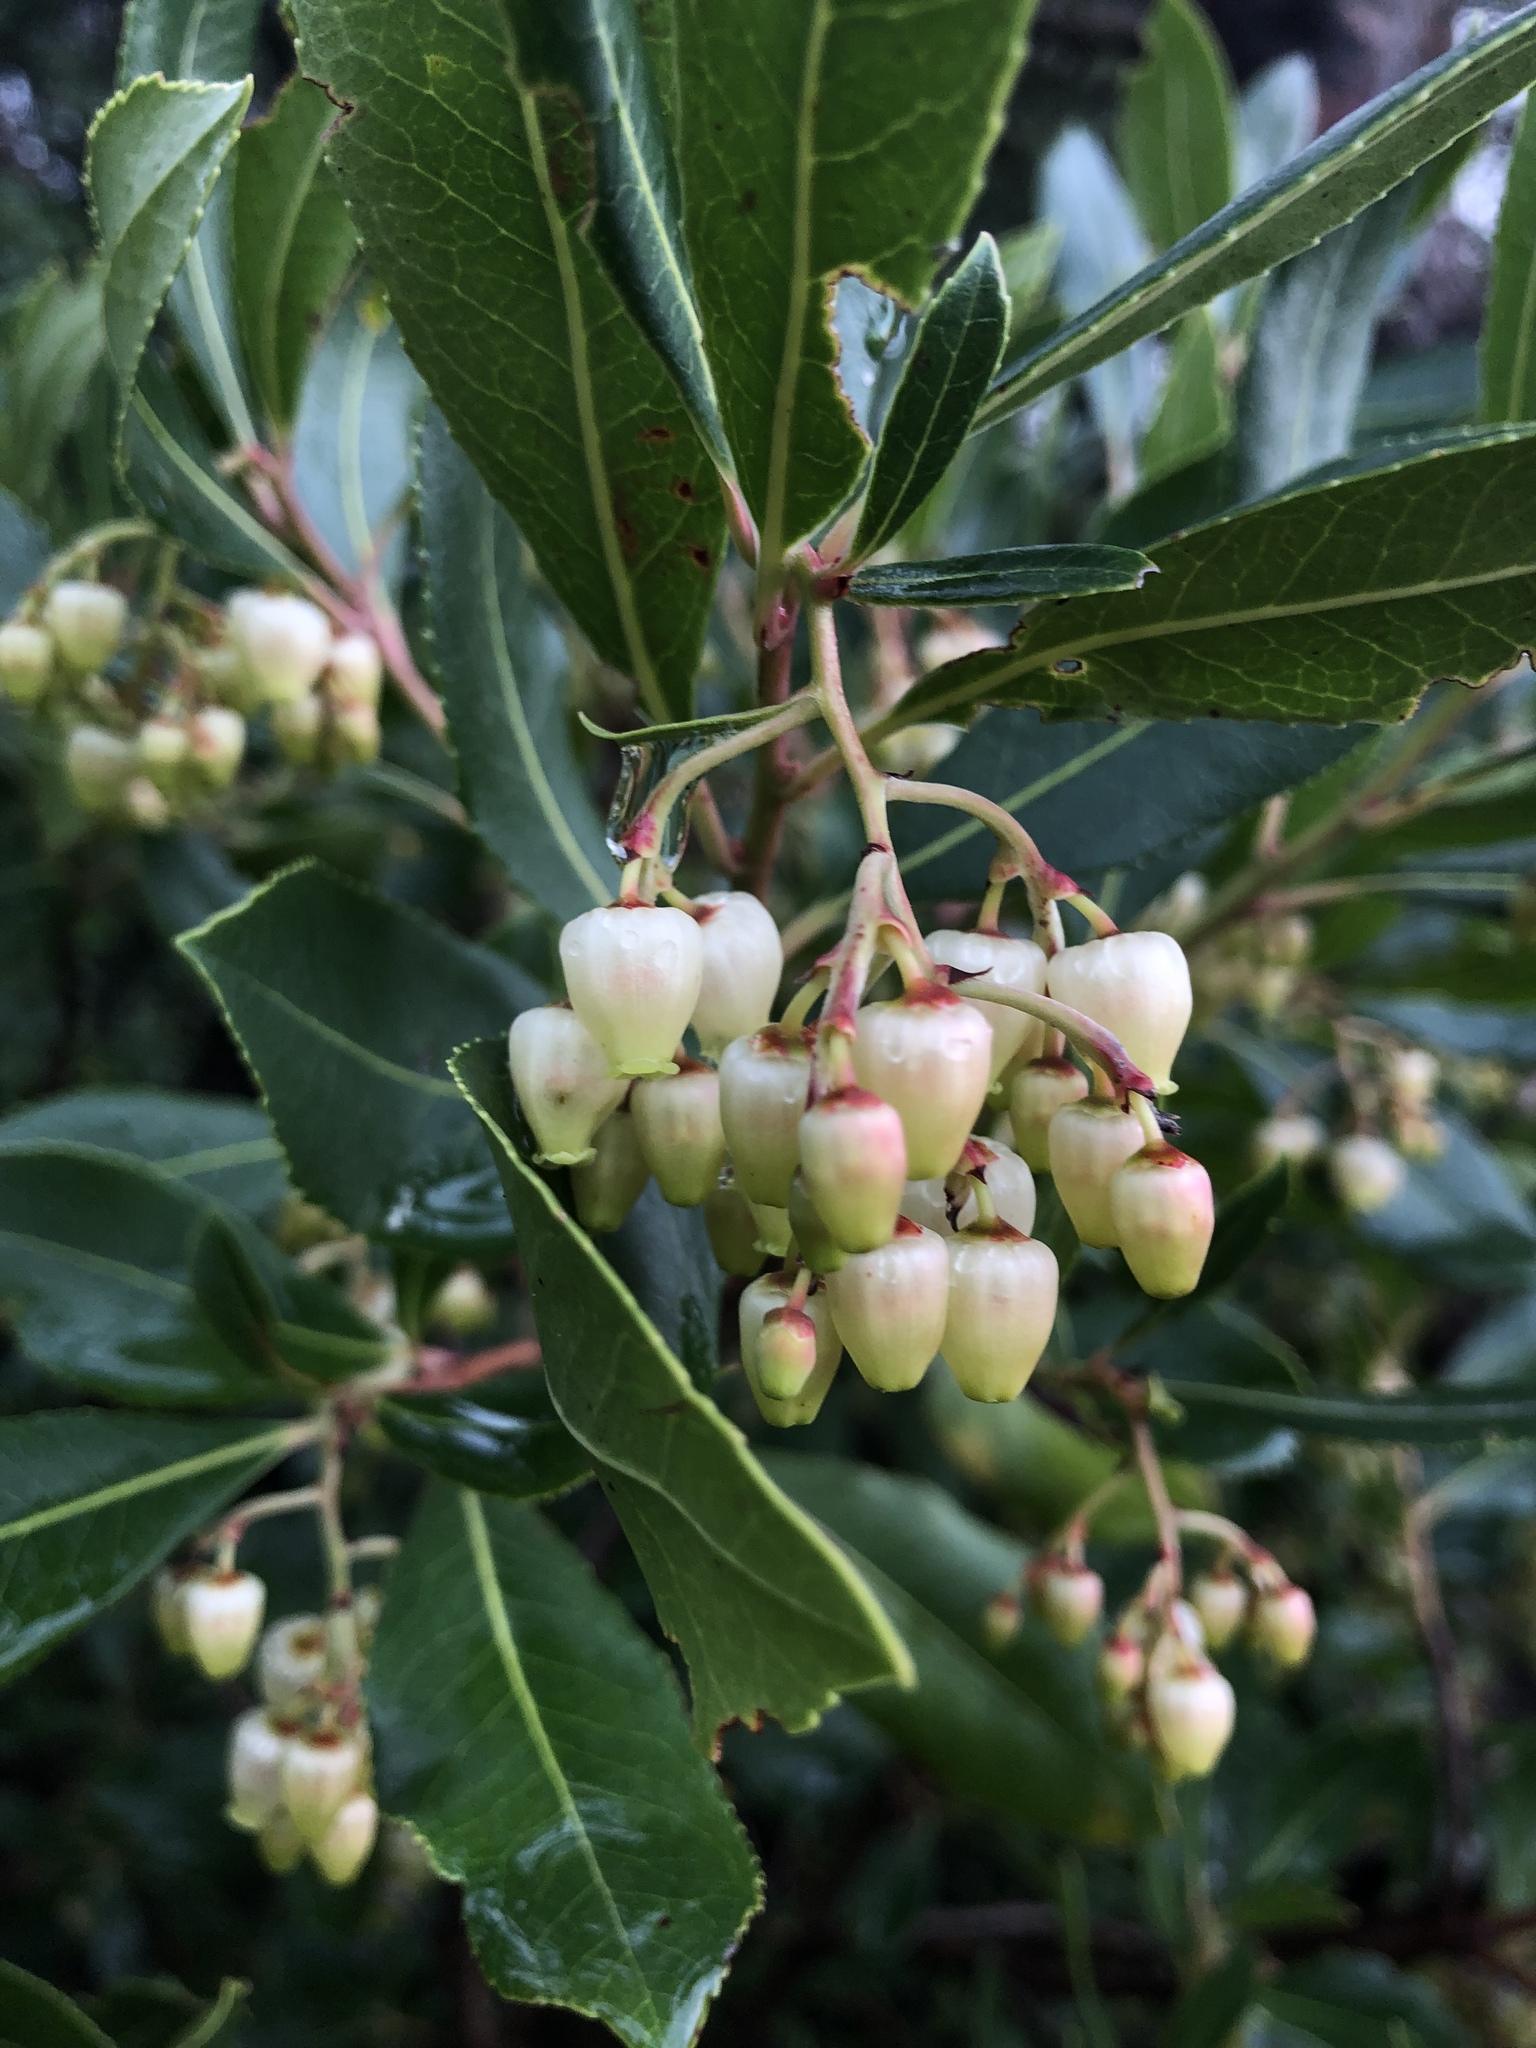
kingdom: Plantae
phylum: Tracheophyta
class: Magnoliopsida
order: Ericales
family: Ericaceae
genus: Arbutus
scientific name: Arbutus unedo
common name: Strawberry-tree
